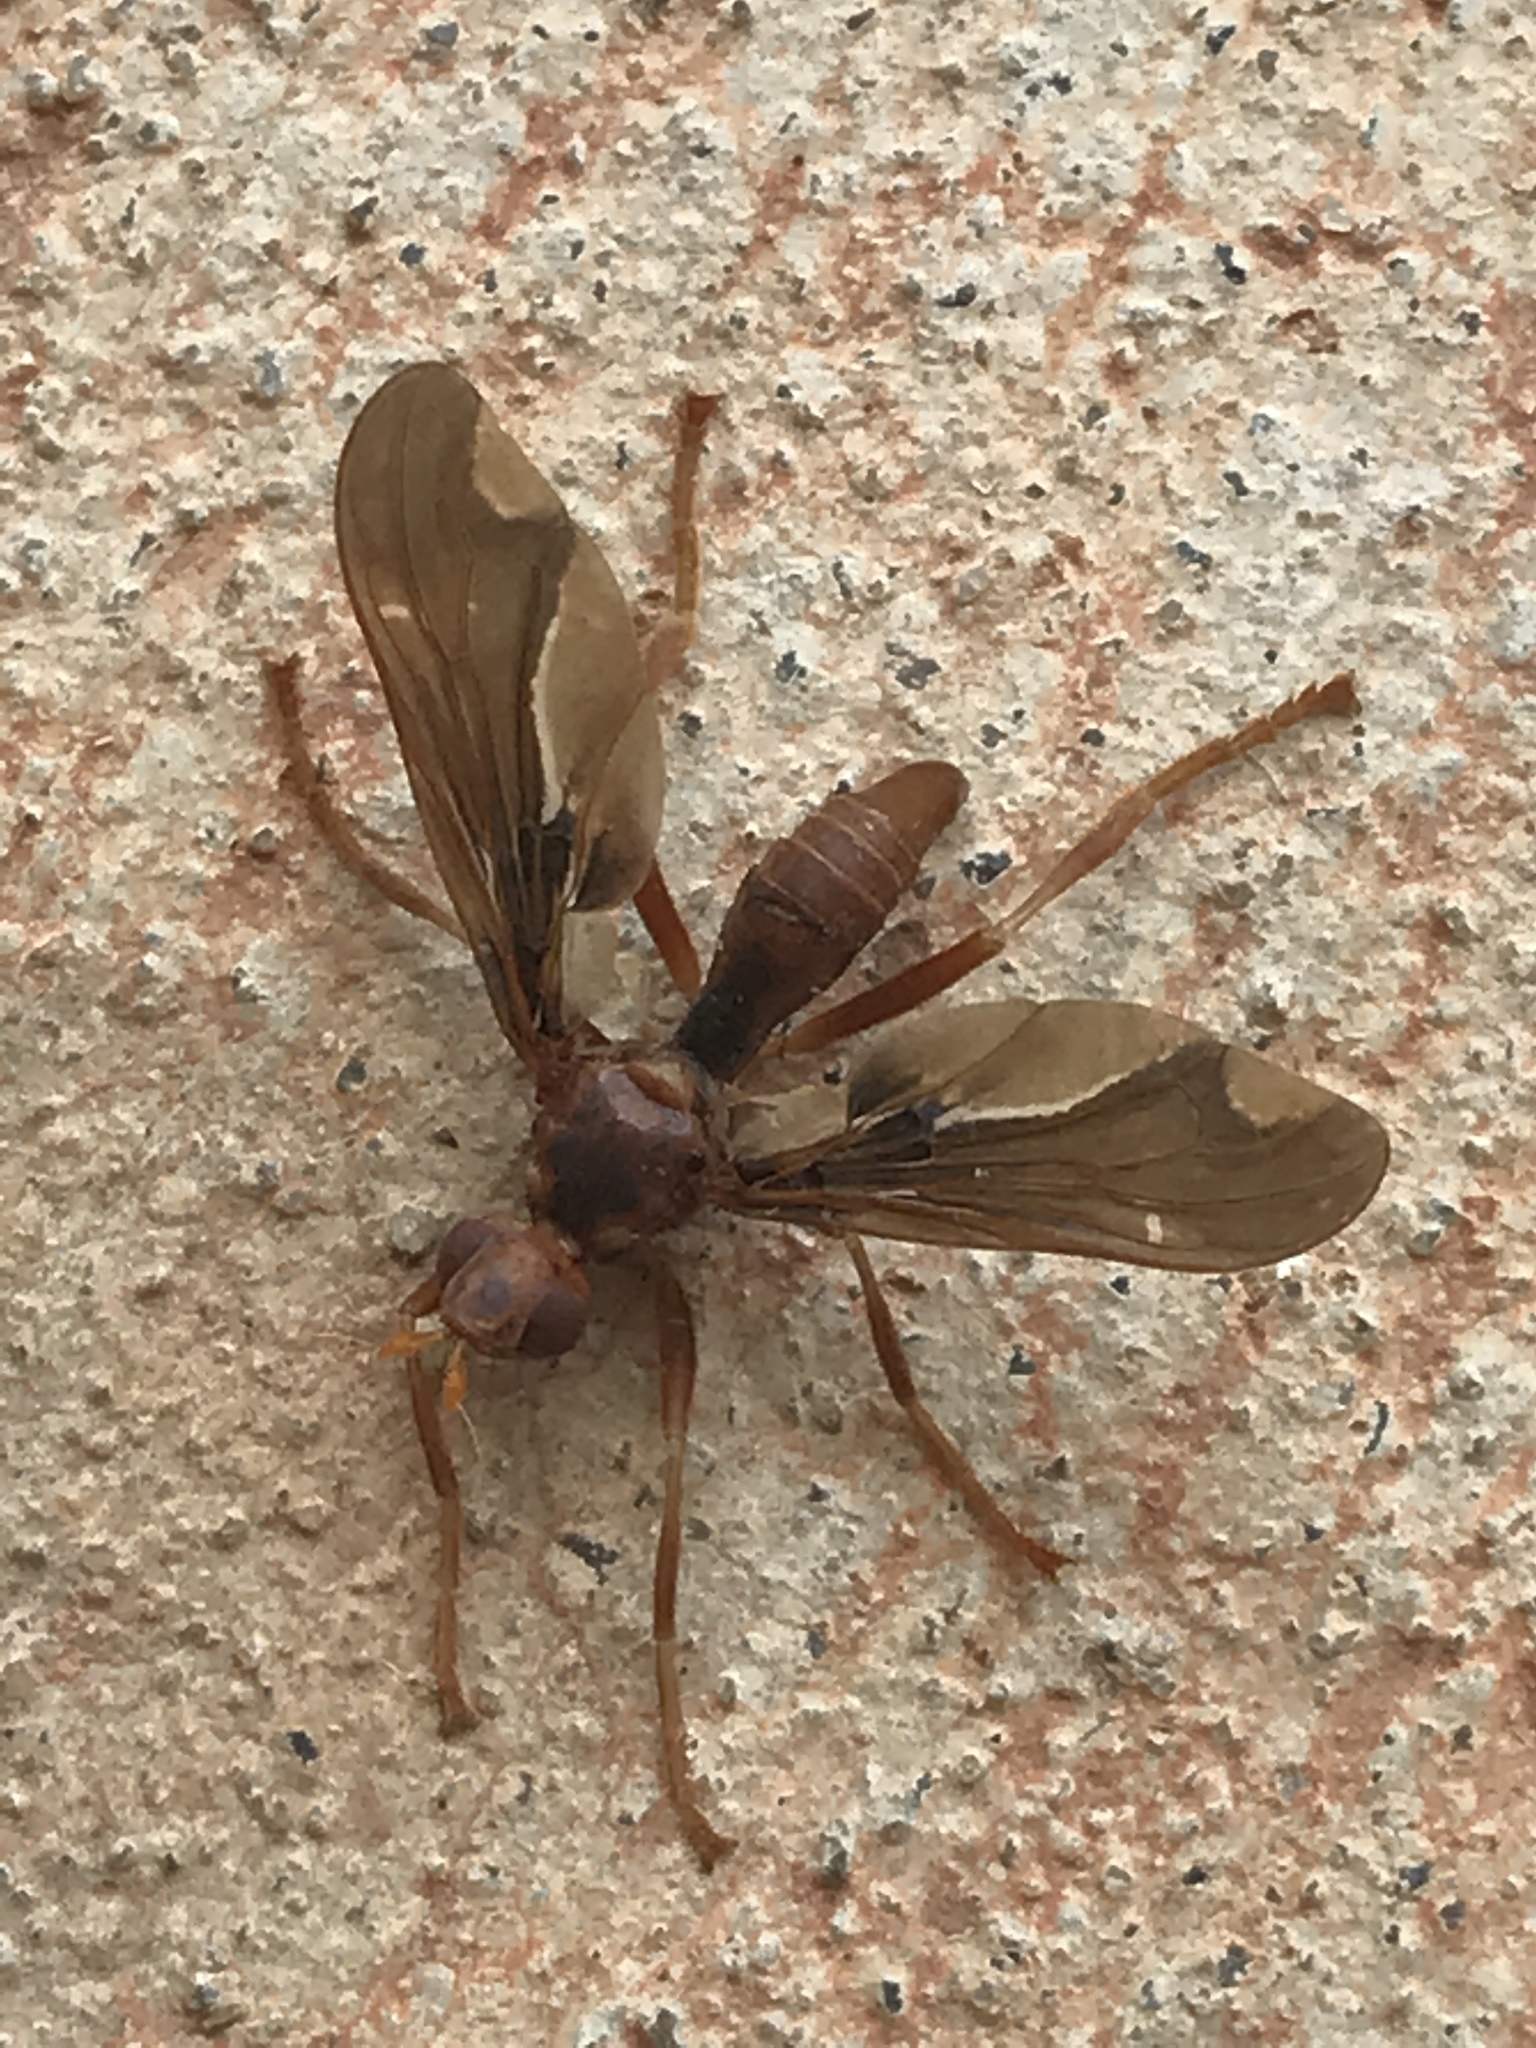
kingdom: Animalia
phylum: Arthropoda
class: Insecta
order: Diptera
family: Pyrgotidae
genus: Pyrgota
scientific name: Pyrgota undata
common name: Waved light fly
